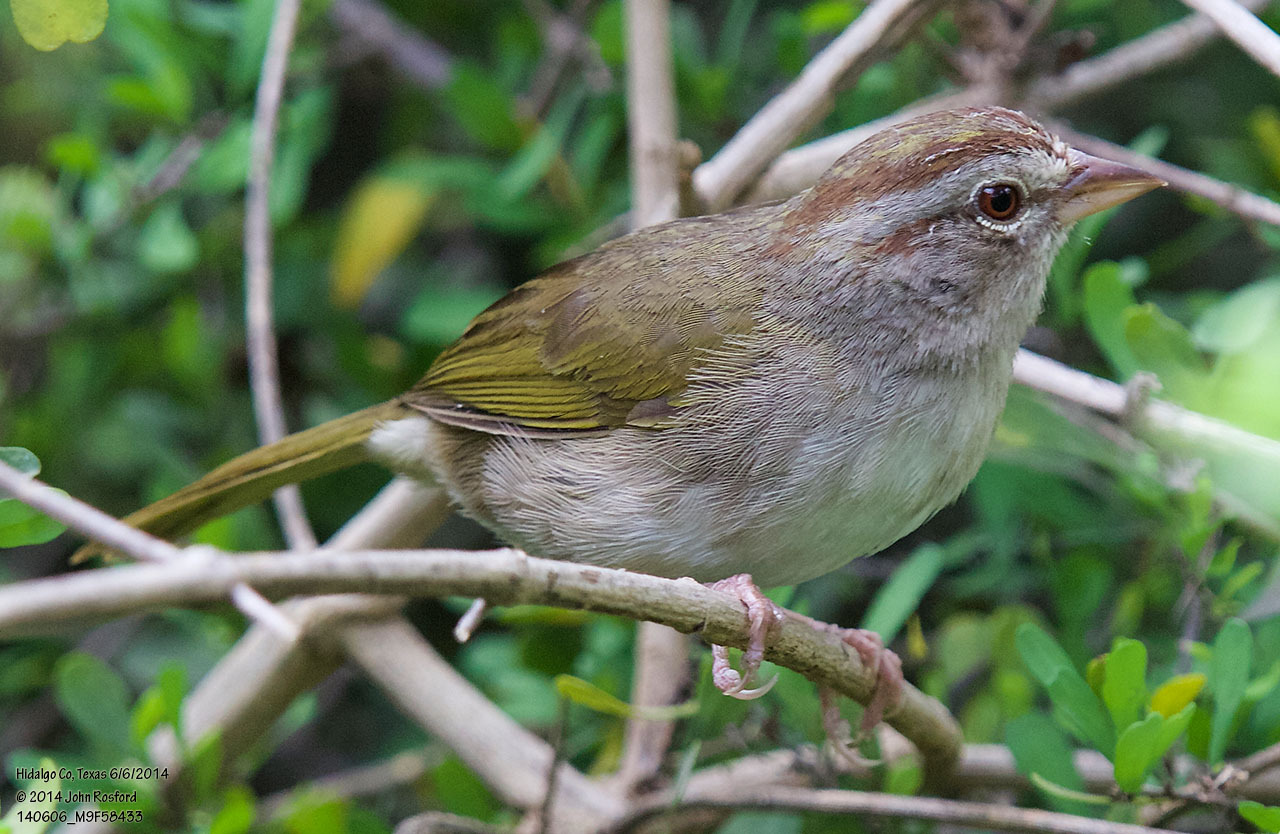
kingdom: Animalia
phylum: Chordata
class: Aves
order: Passeriformes
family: Passerellidae
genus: Arremonops
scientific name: Arremonops rufivirgatus
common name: Olive sparrow
